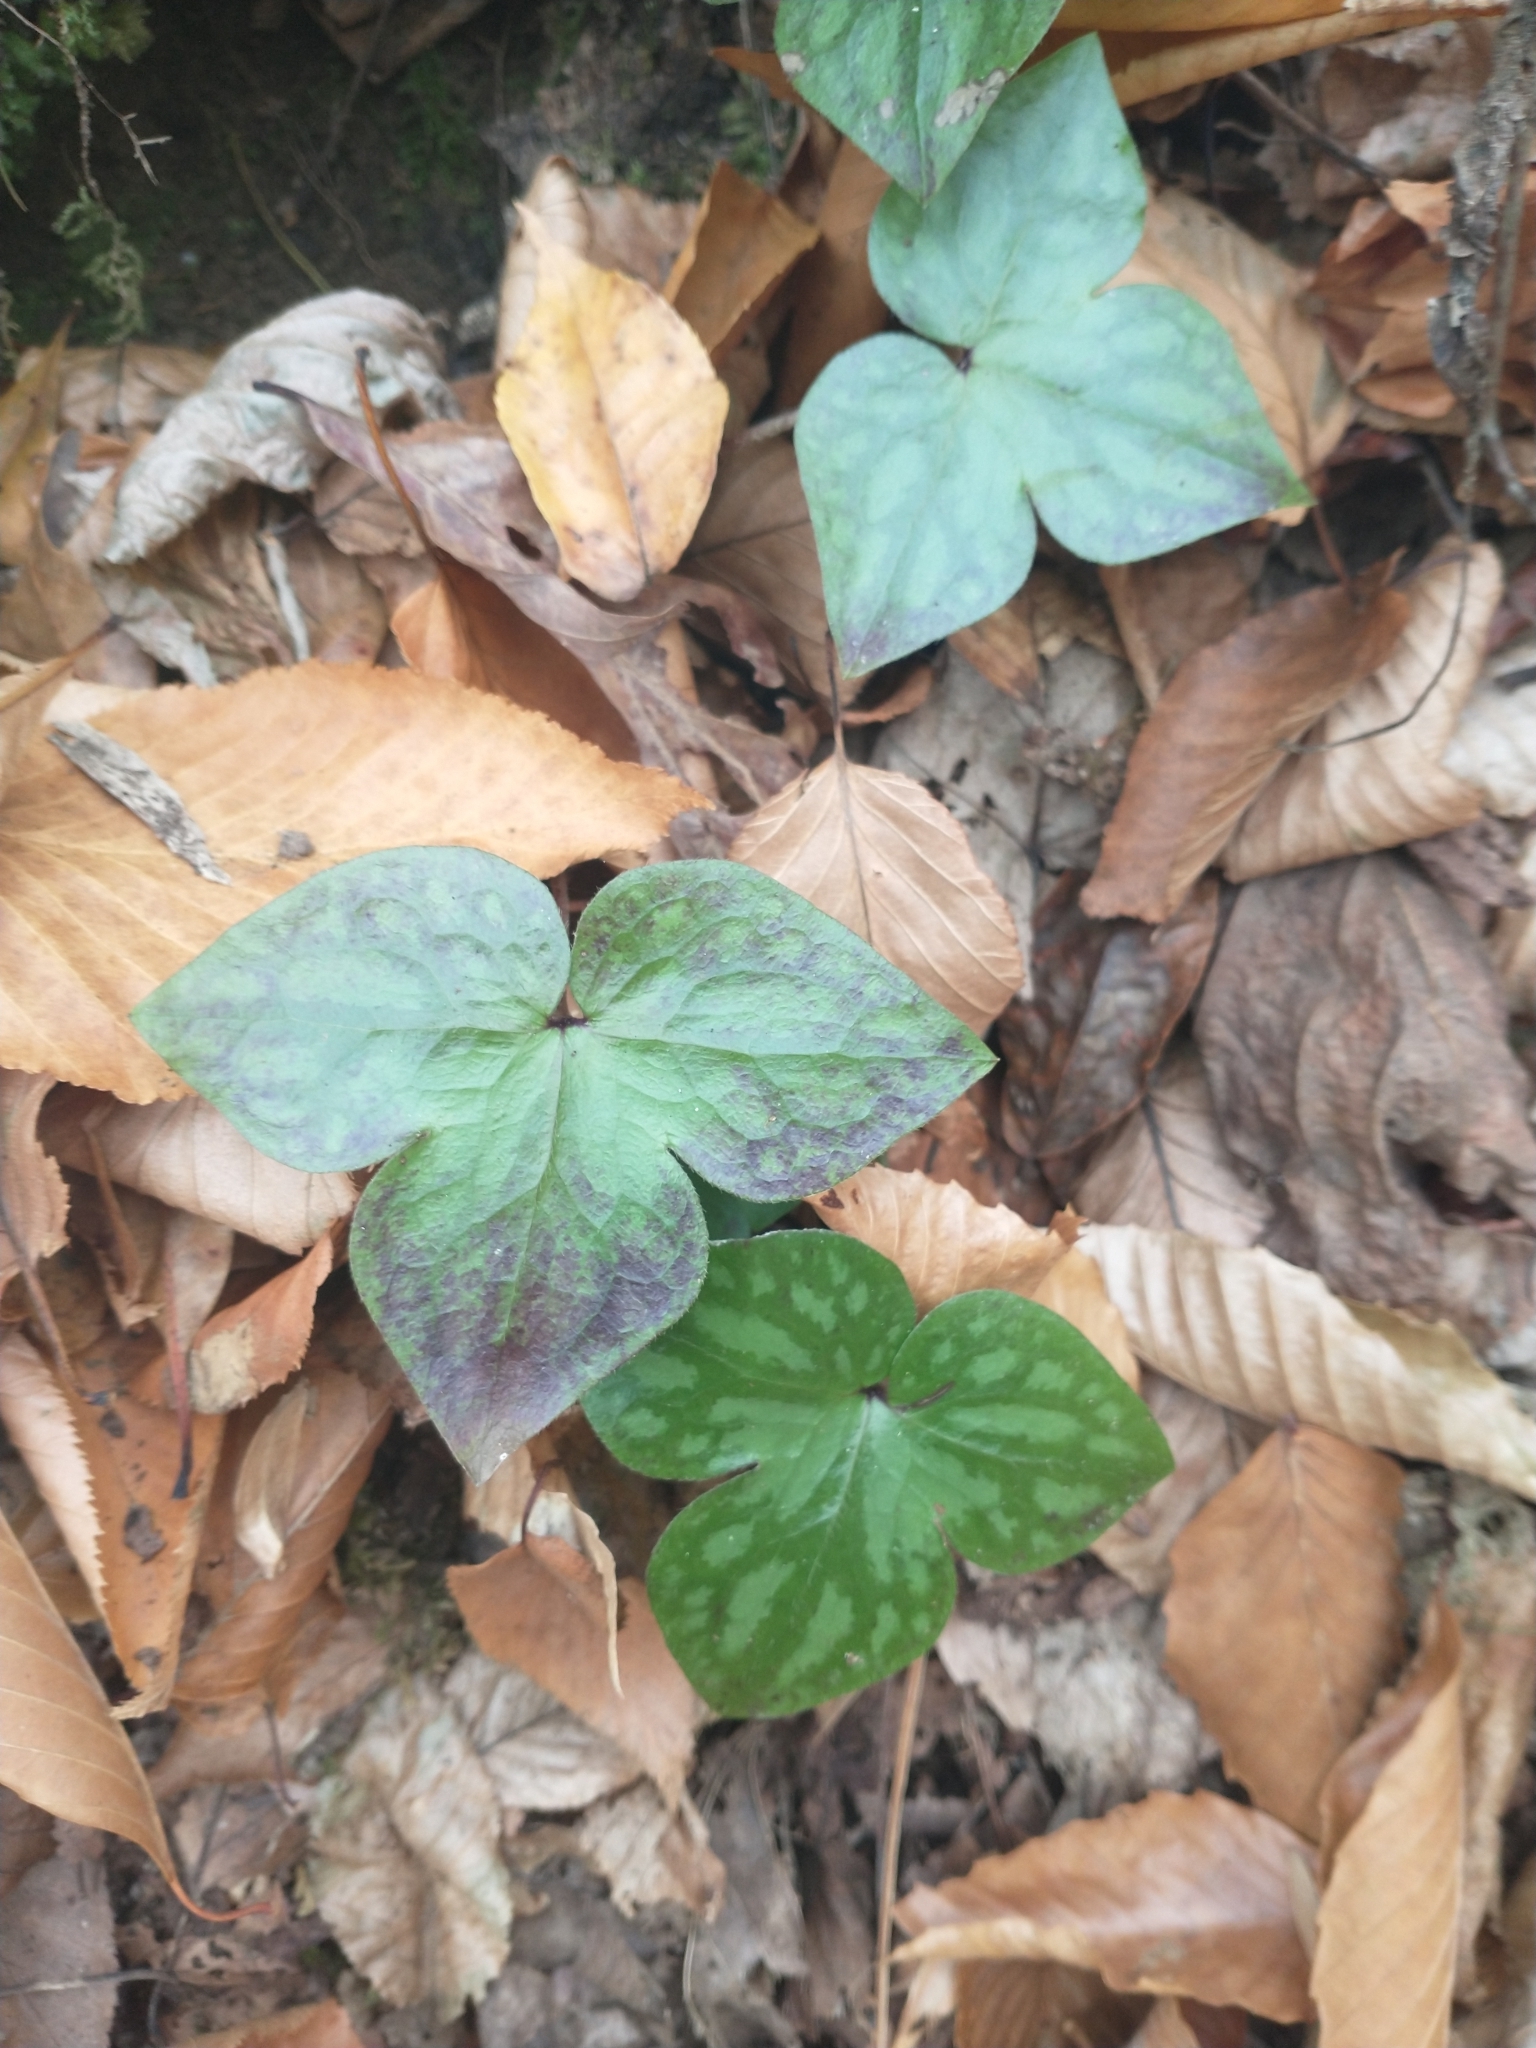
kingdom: Plantae
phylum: Tracheophyta
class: Magnoliopsida
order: Ranunculales
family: Ranunculaceae
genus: Hepatica
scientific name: Hepatica acutiloba
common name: Sharp-lobed hepatica
